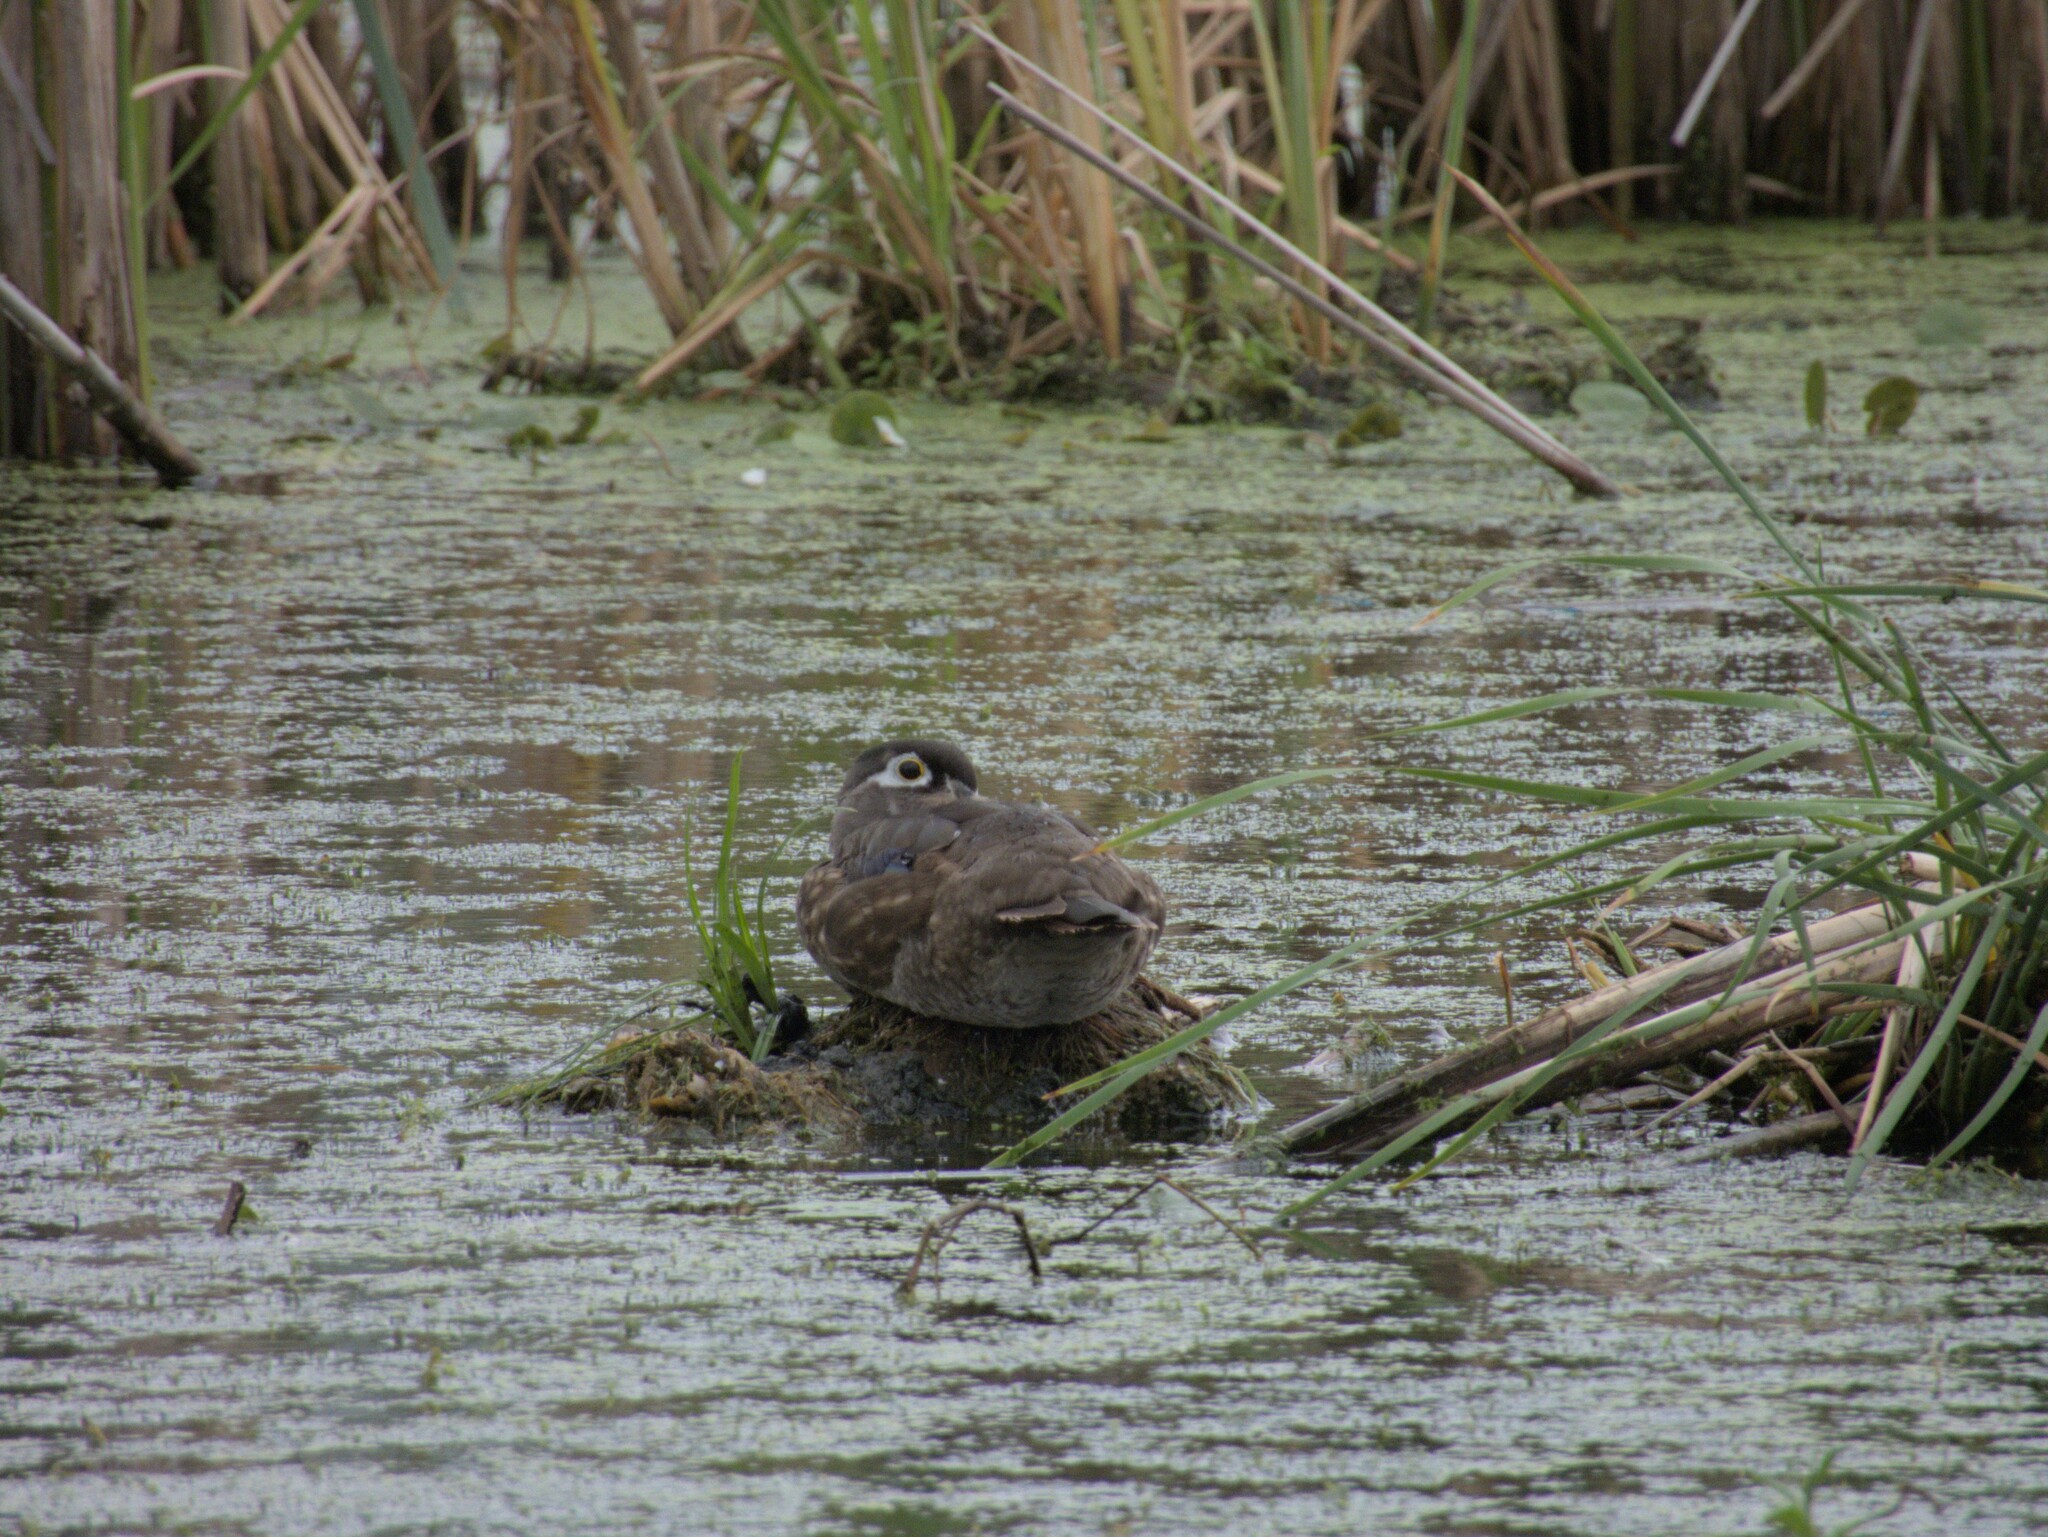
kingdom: Animalia
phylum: Chordata
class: Aves
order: Anseriformes
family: Anatidae
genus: Aix
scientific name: Aix sponsa
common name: Wood duck
